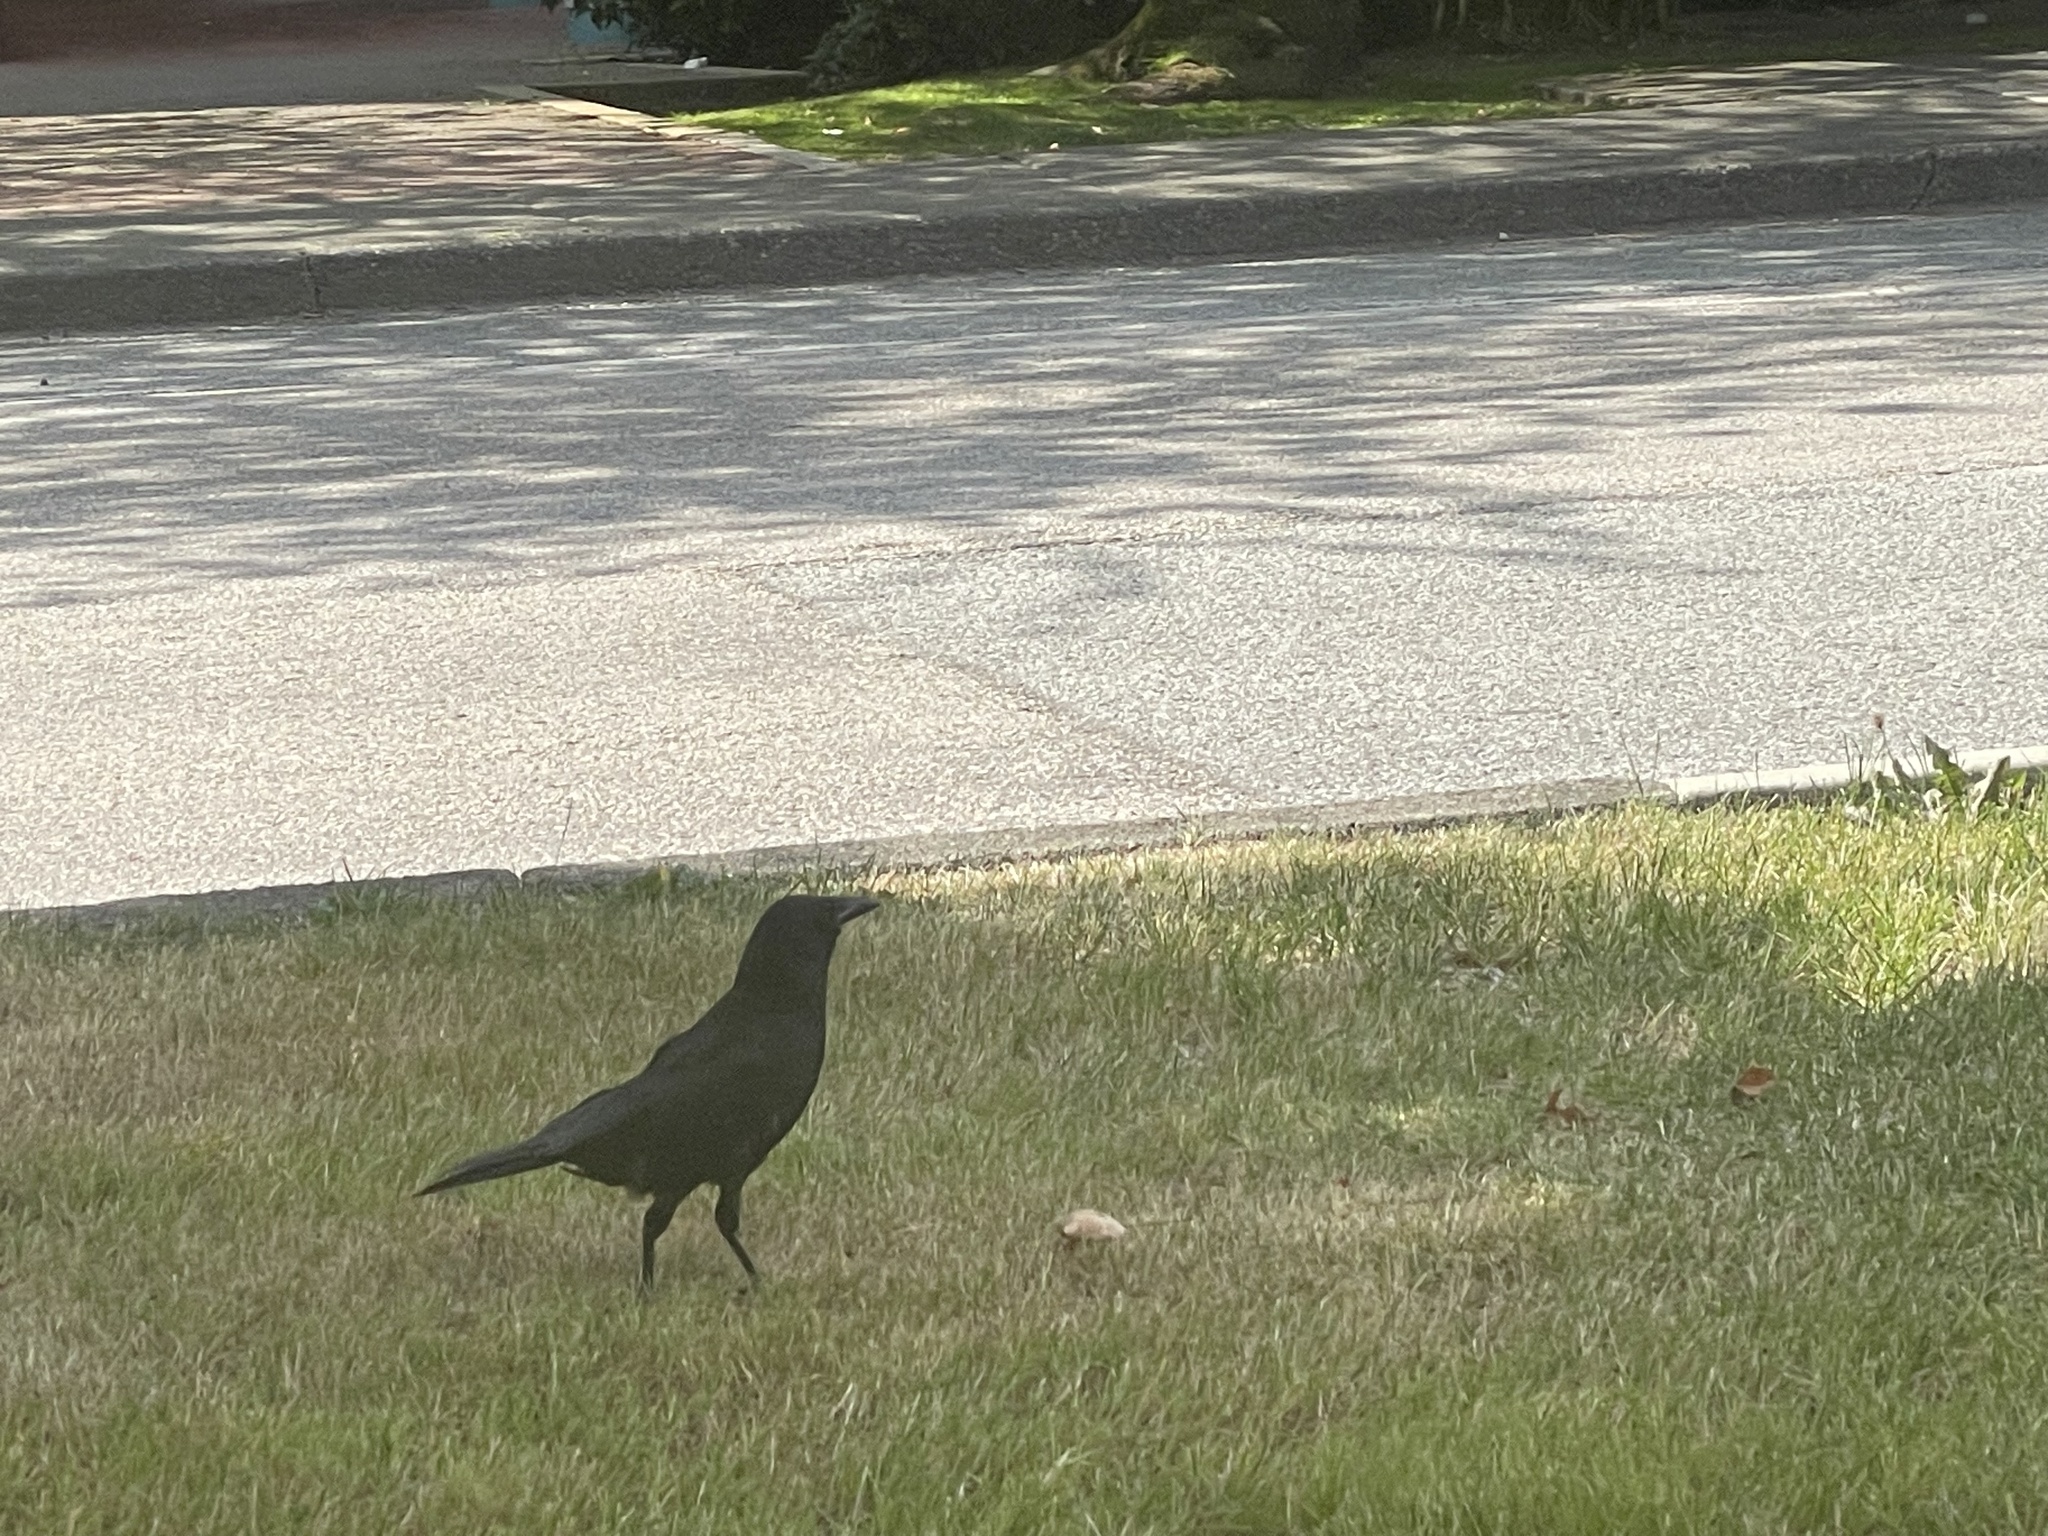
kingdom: Animalia
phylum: Chordata
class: Aves
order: Passeriformes
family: Corvidae
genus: Corvus
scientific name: Corvus brachyrhynchos
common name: American crow
